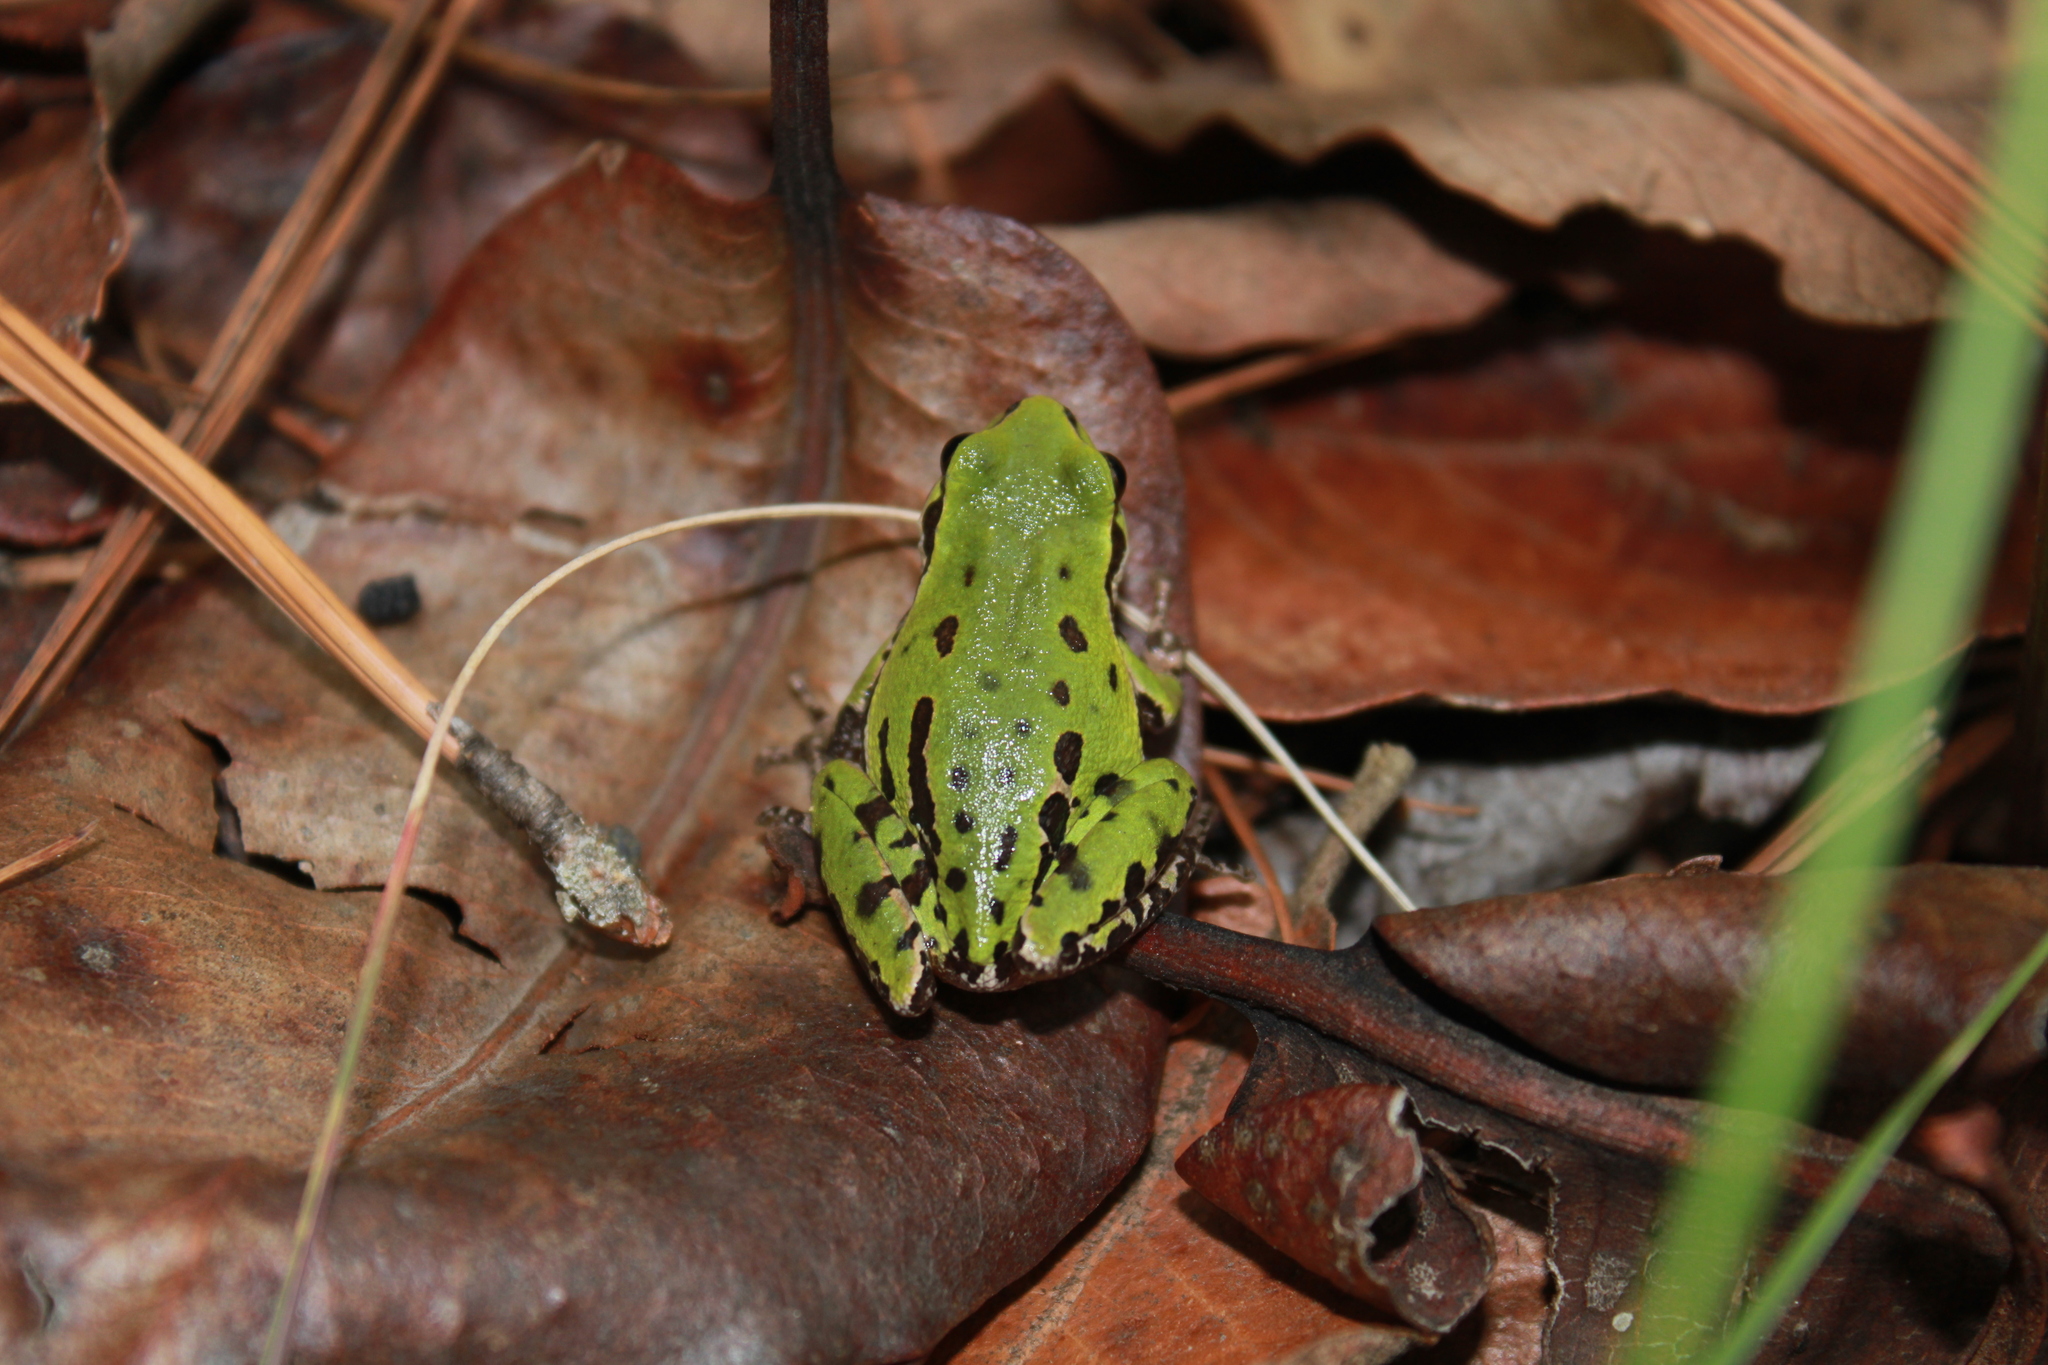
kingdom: Animalia
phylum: Chordata
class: Amphibia
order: Anura
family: Hylidae
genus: Dryophytes
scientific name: Dryophytes eximius
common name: Mountain treefrog
